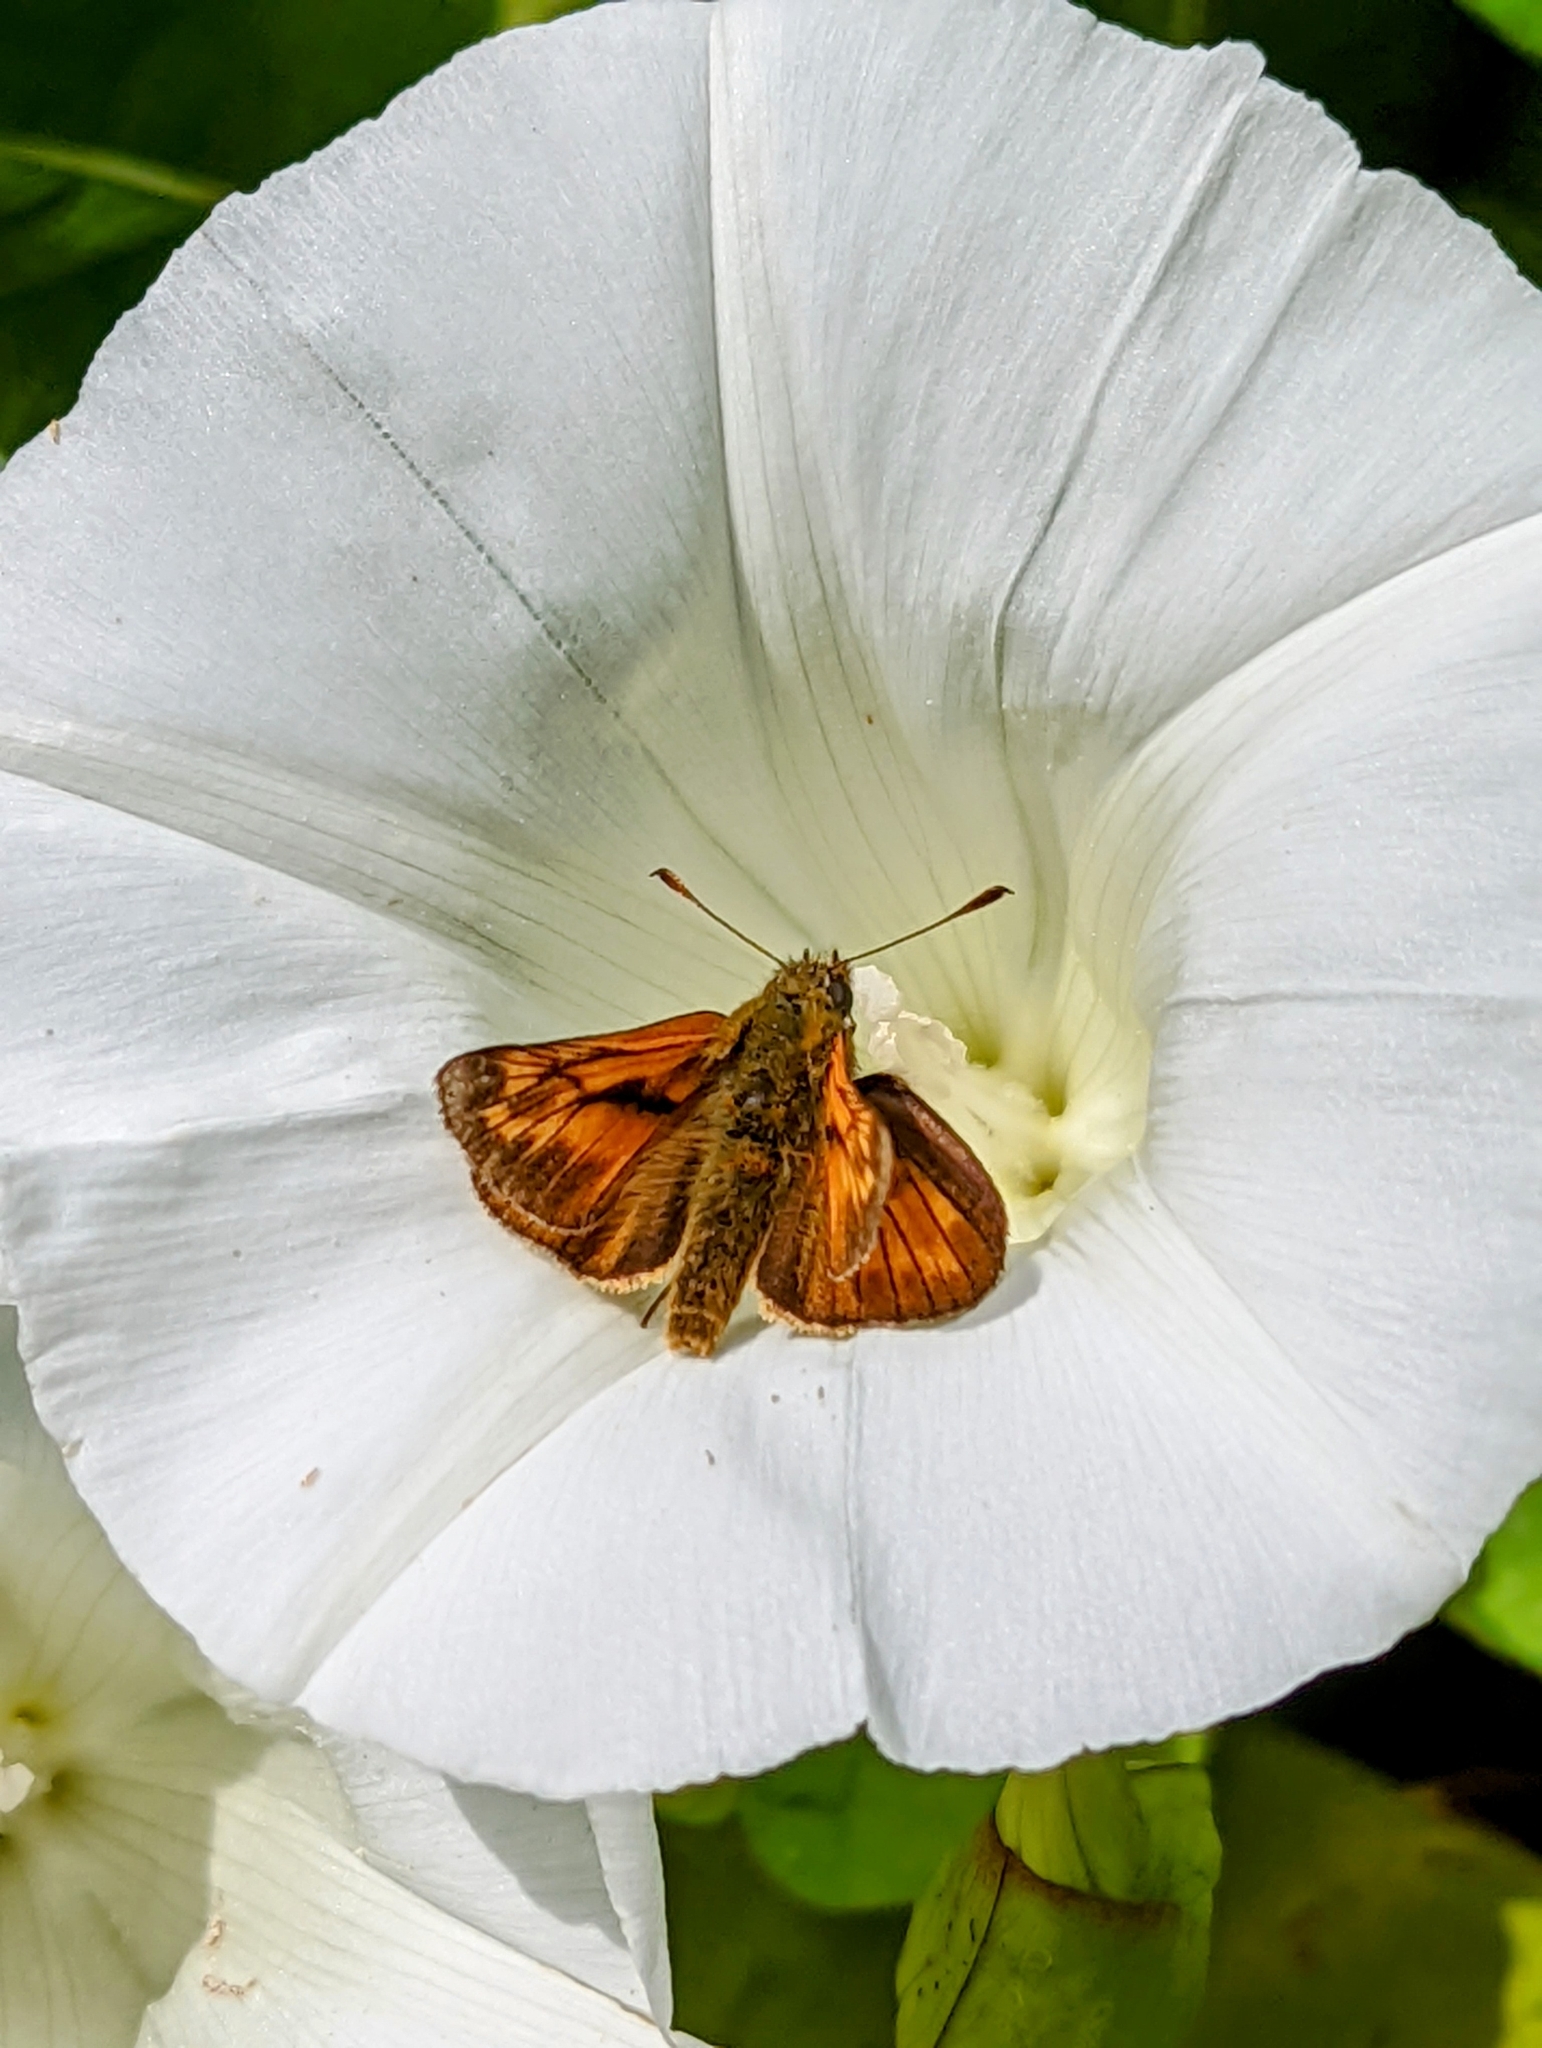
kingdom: Animalia
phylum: Arthropoda
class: Insecta
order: Lepidoptera
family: Hesperiidae
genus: Ochlodes
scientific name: Ochlodes venata
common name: Large skipper
